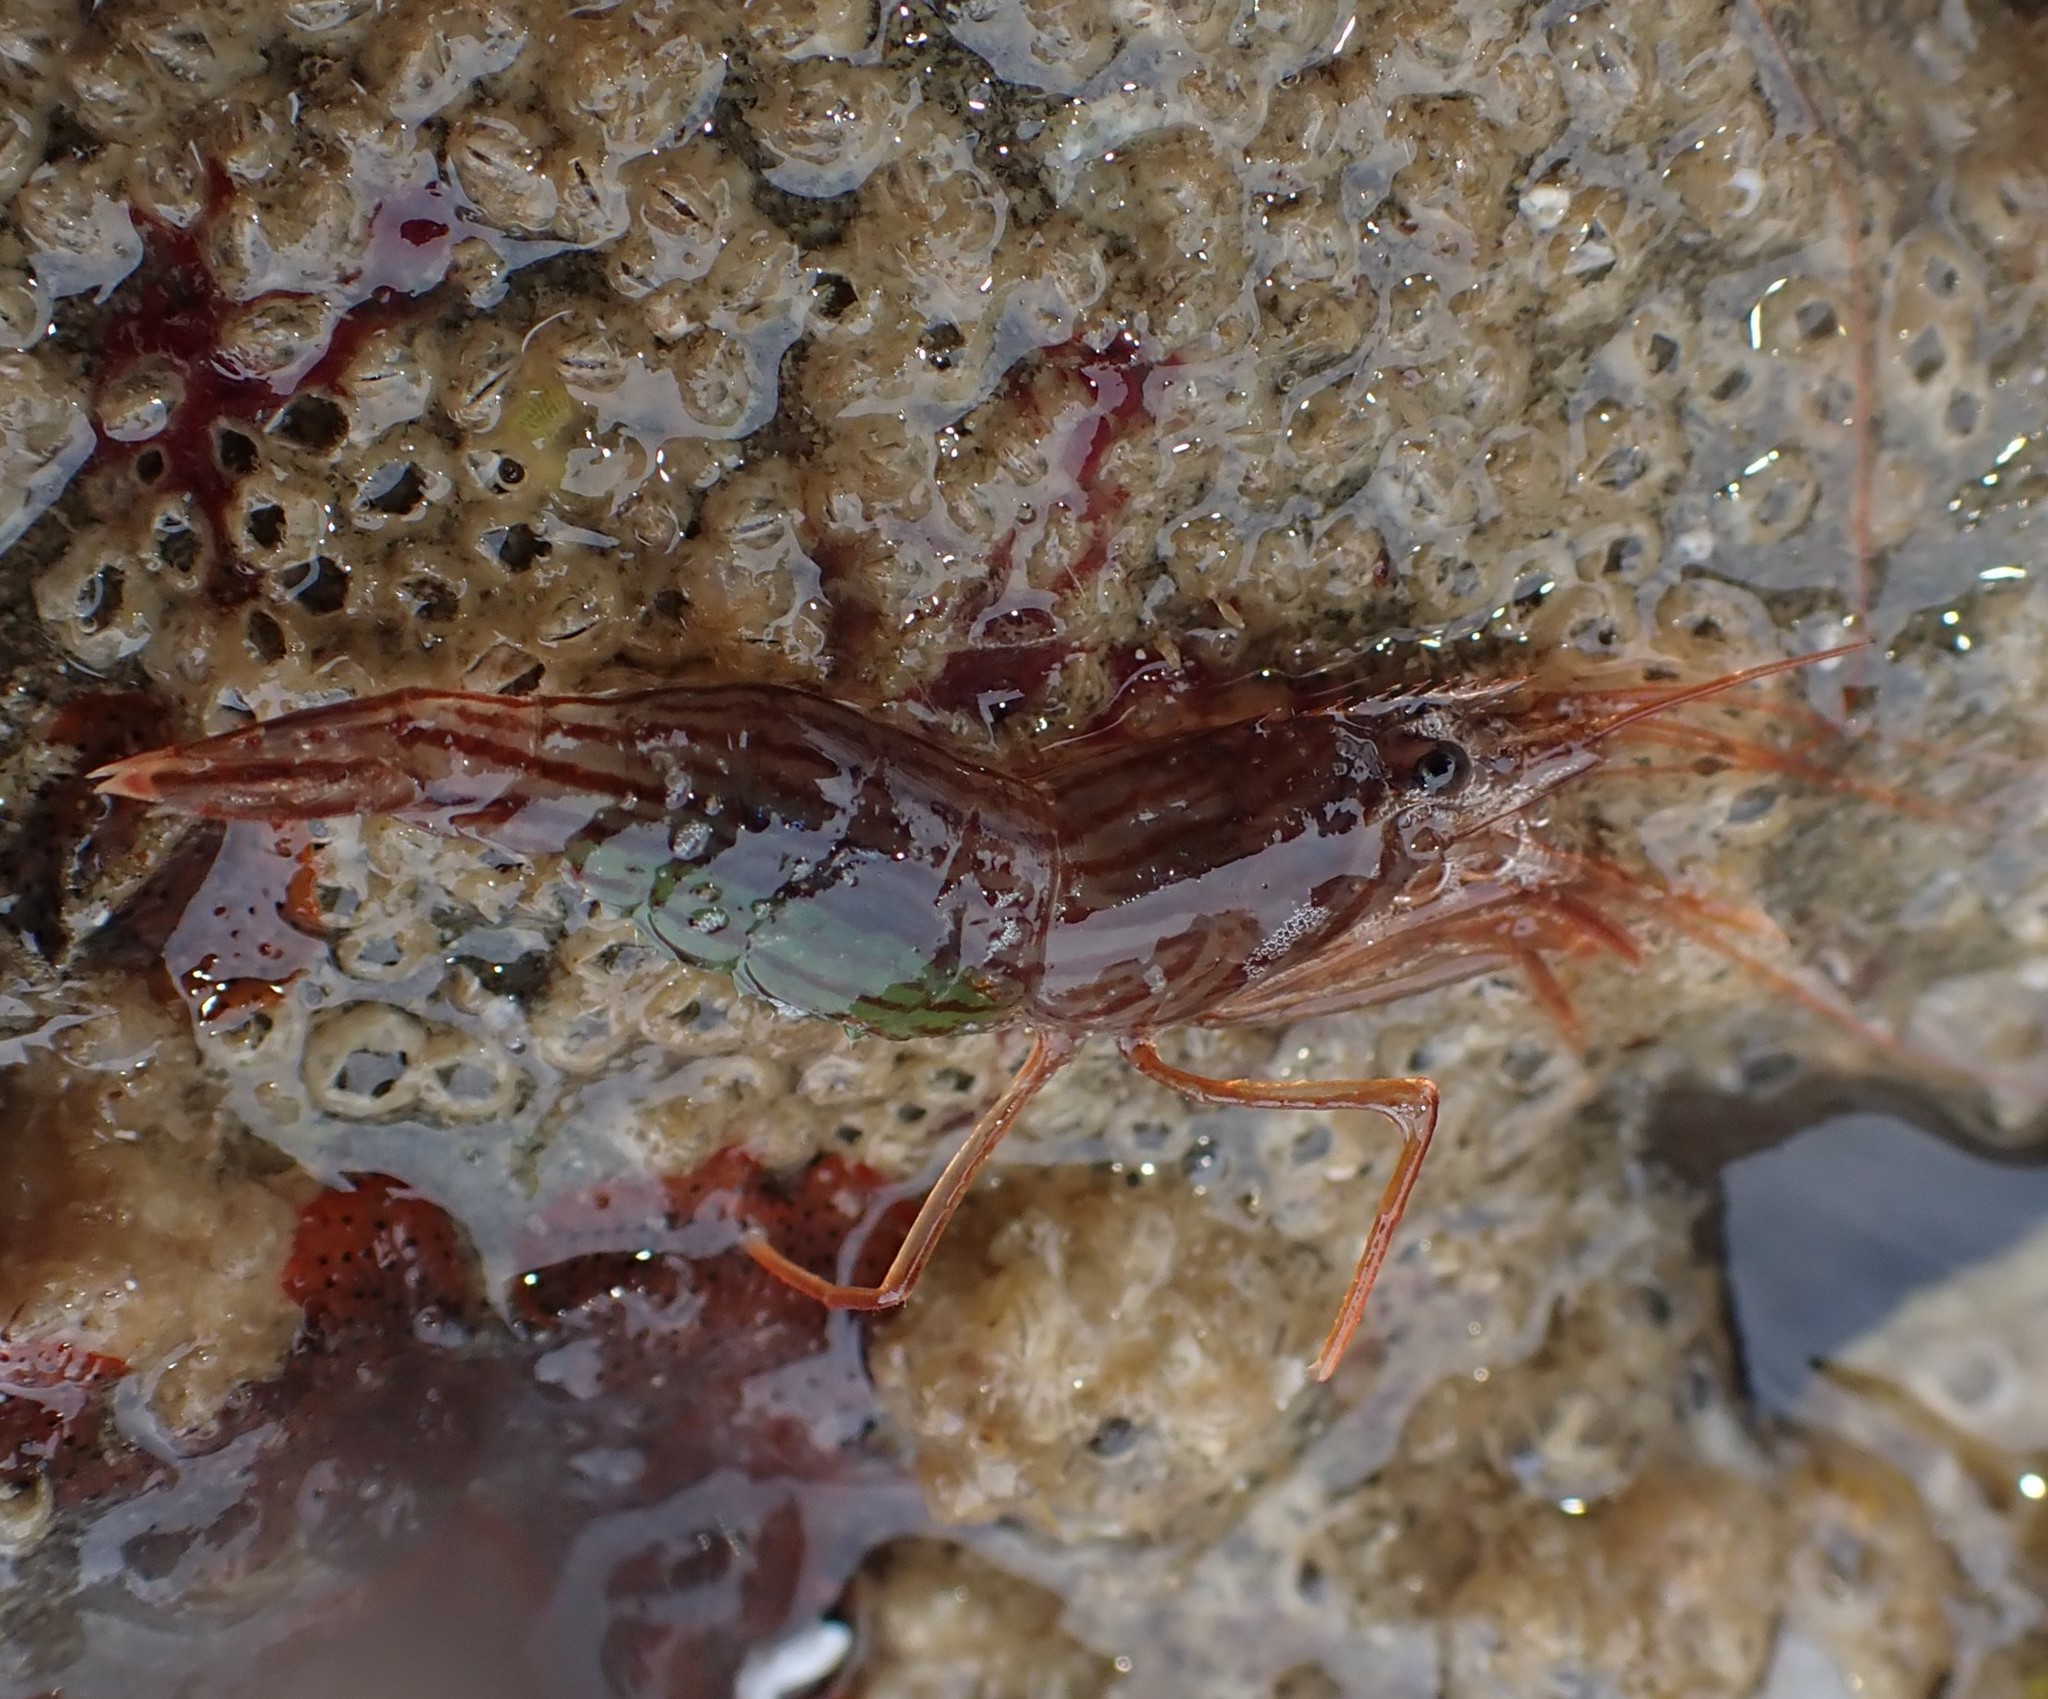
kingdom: Animalia
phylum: Arthropoda
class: Malacostraca
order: Decapoda
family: Lysmatidae
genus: Lysmata
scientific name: Lysmata vittata
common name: Indian lined shrimp
